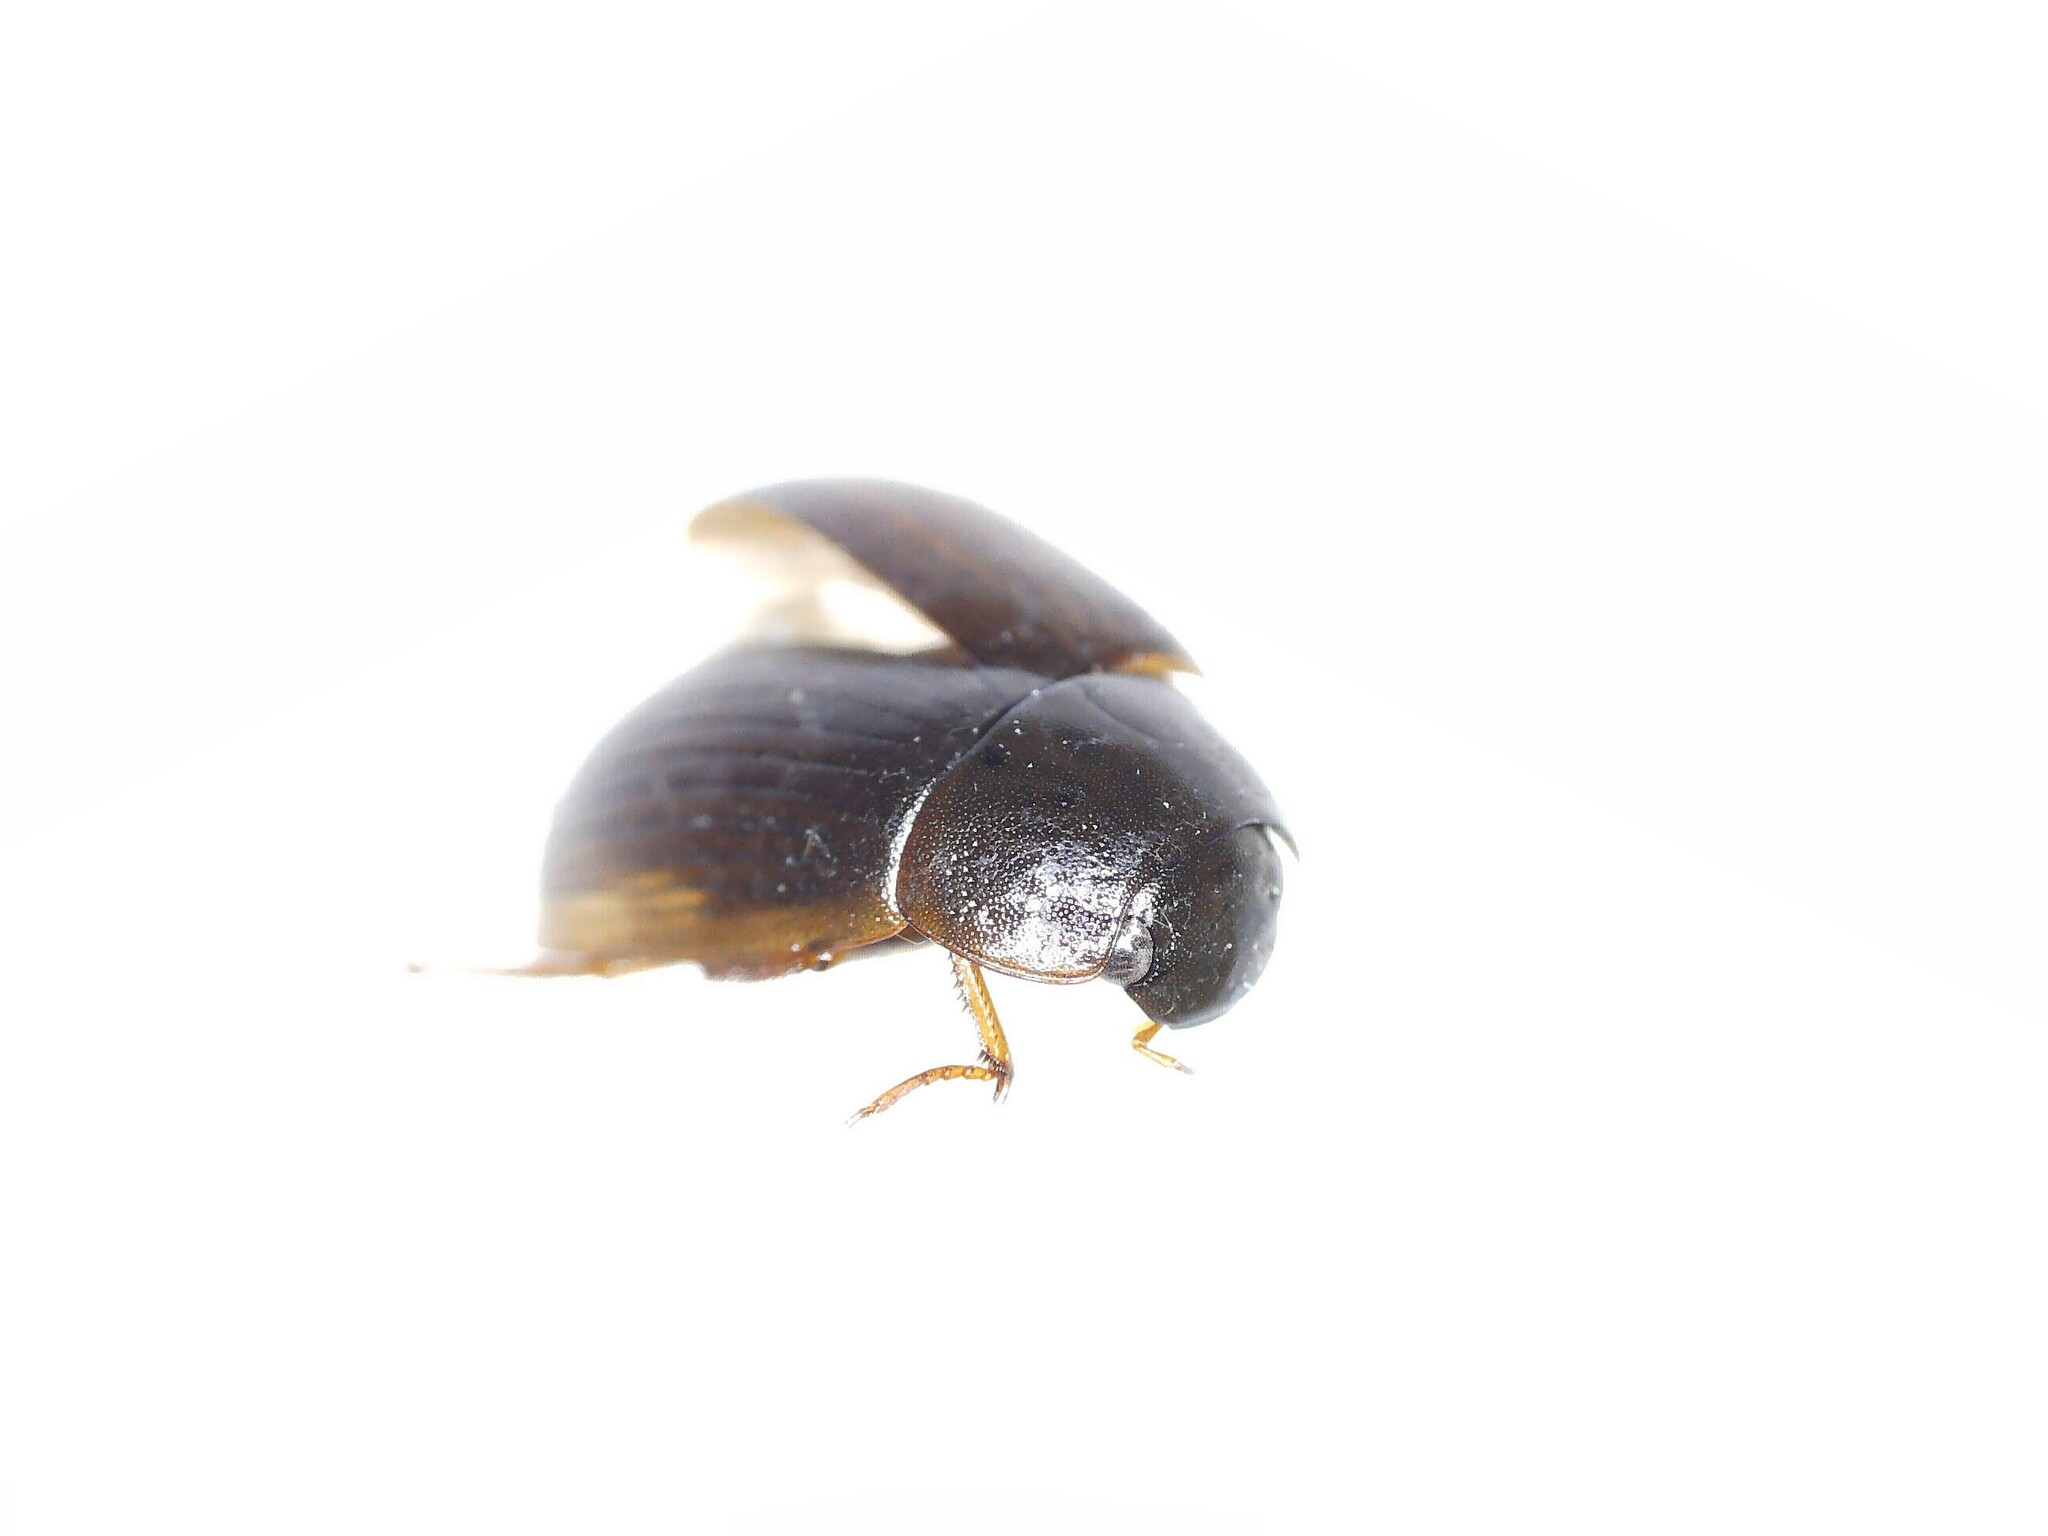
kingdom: Animalia
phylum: Arthropoda
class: Insecta
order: Coleoptera
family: Hydrophilidae
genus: Hydrobius
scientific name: Hydrobius
